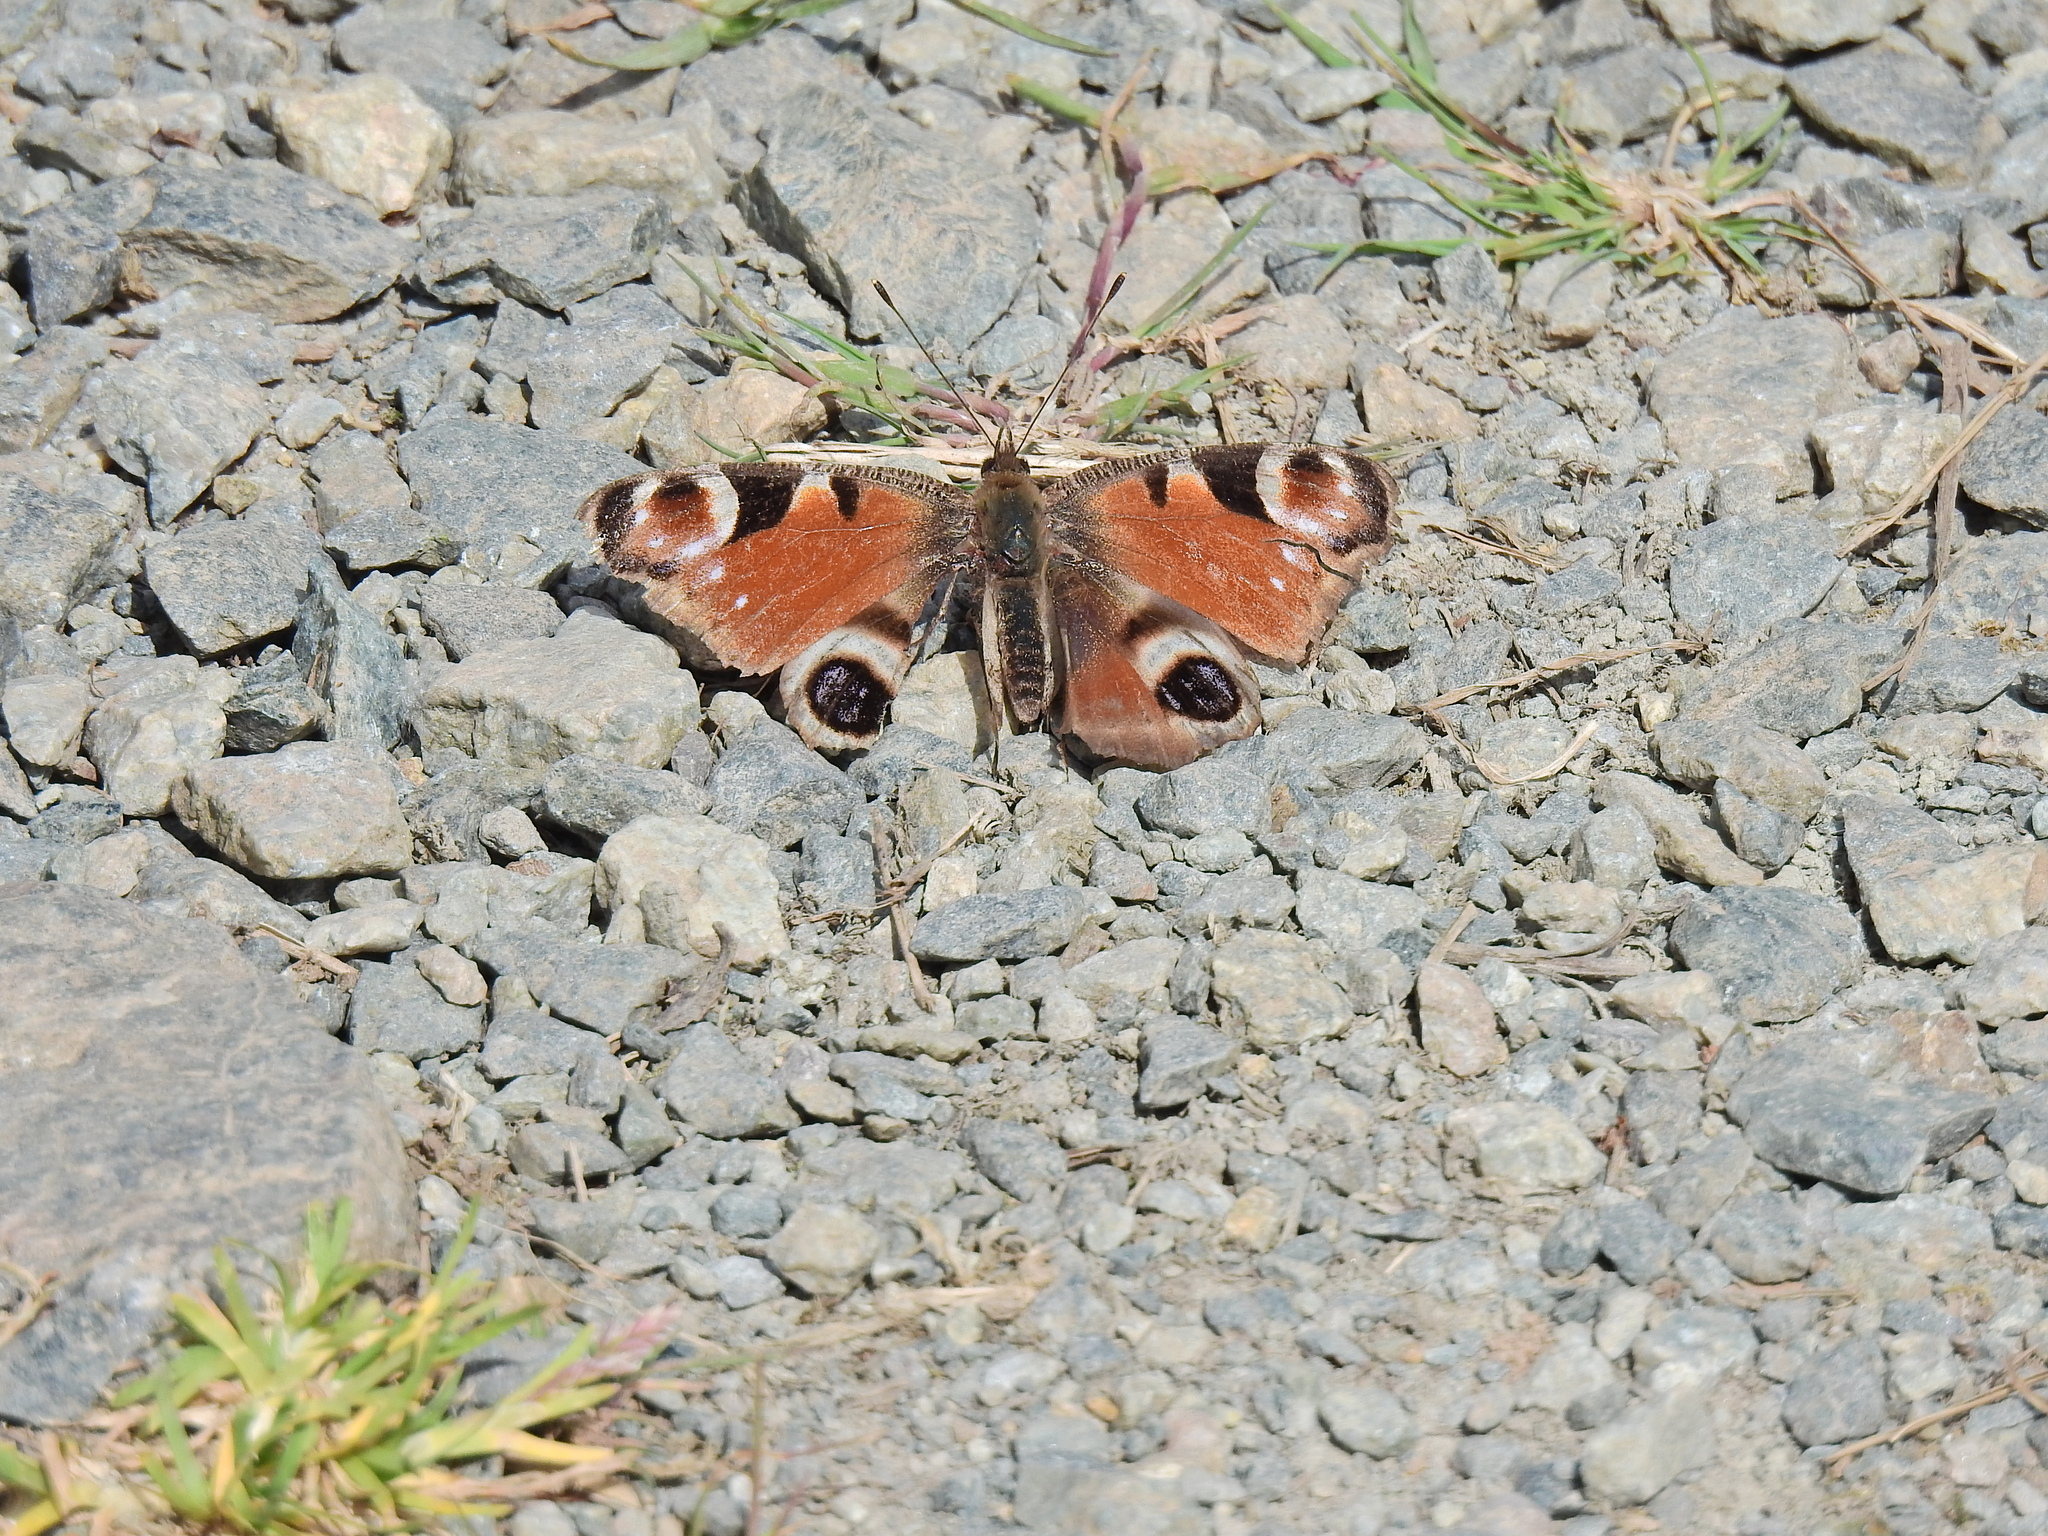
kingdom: Animalia
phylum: Arthropoda
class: Insecta
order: Lepidoptera
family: Nymphalidae
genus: Aglais
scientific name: Aglais io
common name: Peacock
